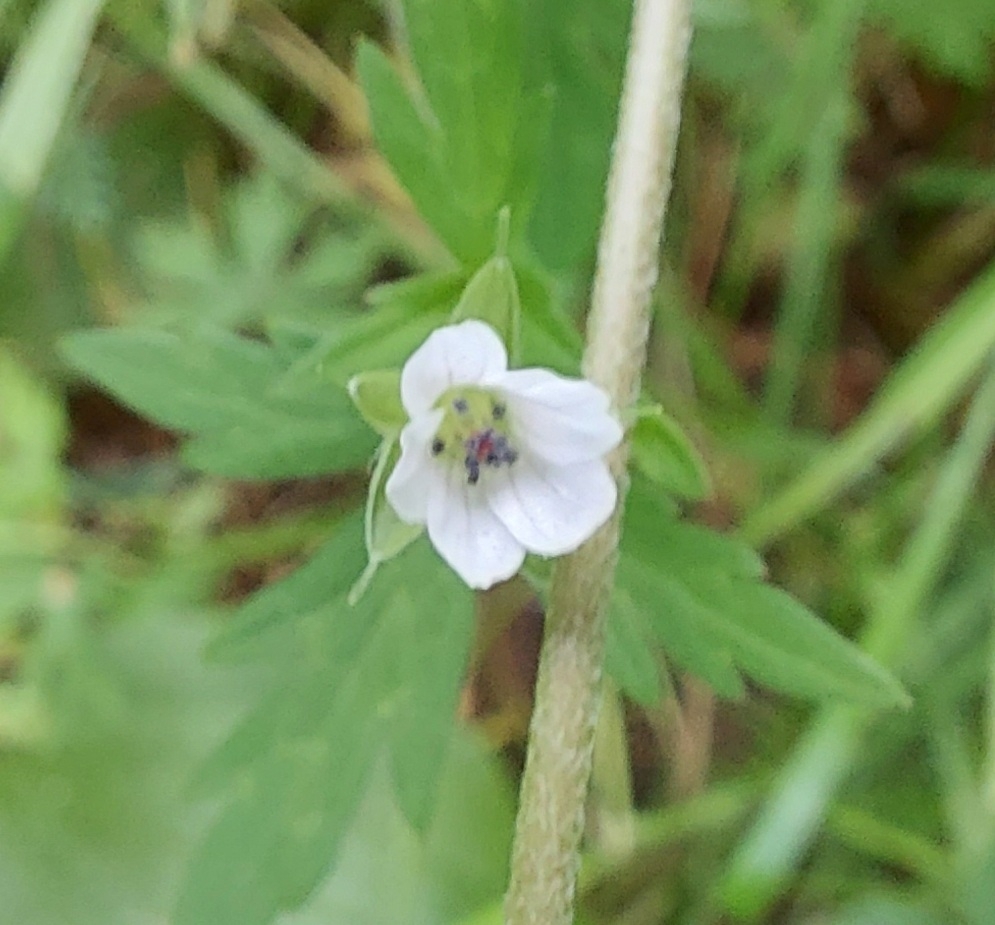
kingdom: Plantae
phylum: Tracheophyta
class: Magnoliopsida
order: Geraniales
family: Geraniaceae
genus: Geranium
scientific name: Geranium sibiricum
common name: Siberian crane's-bill
